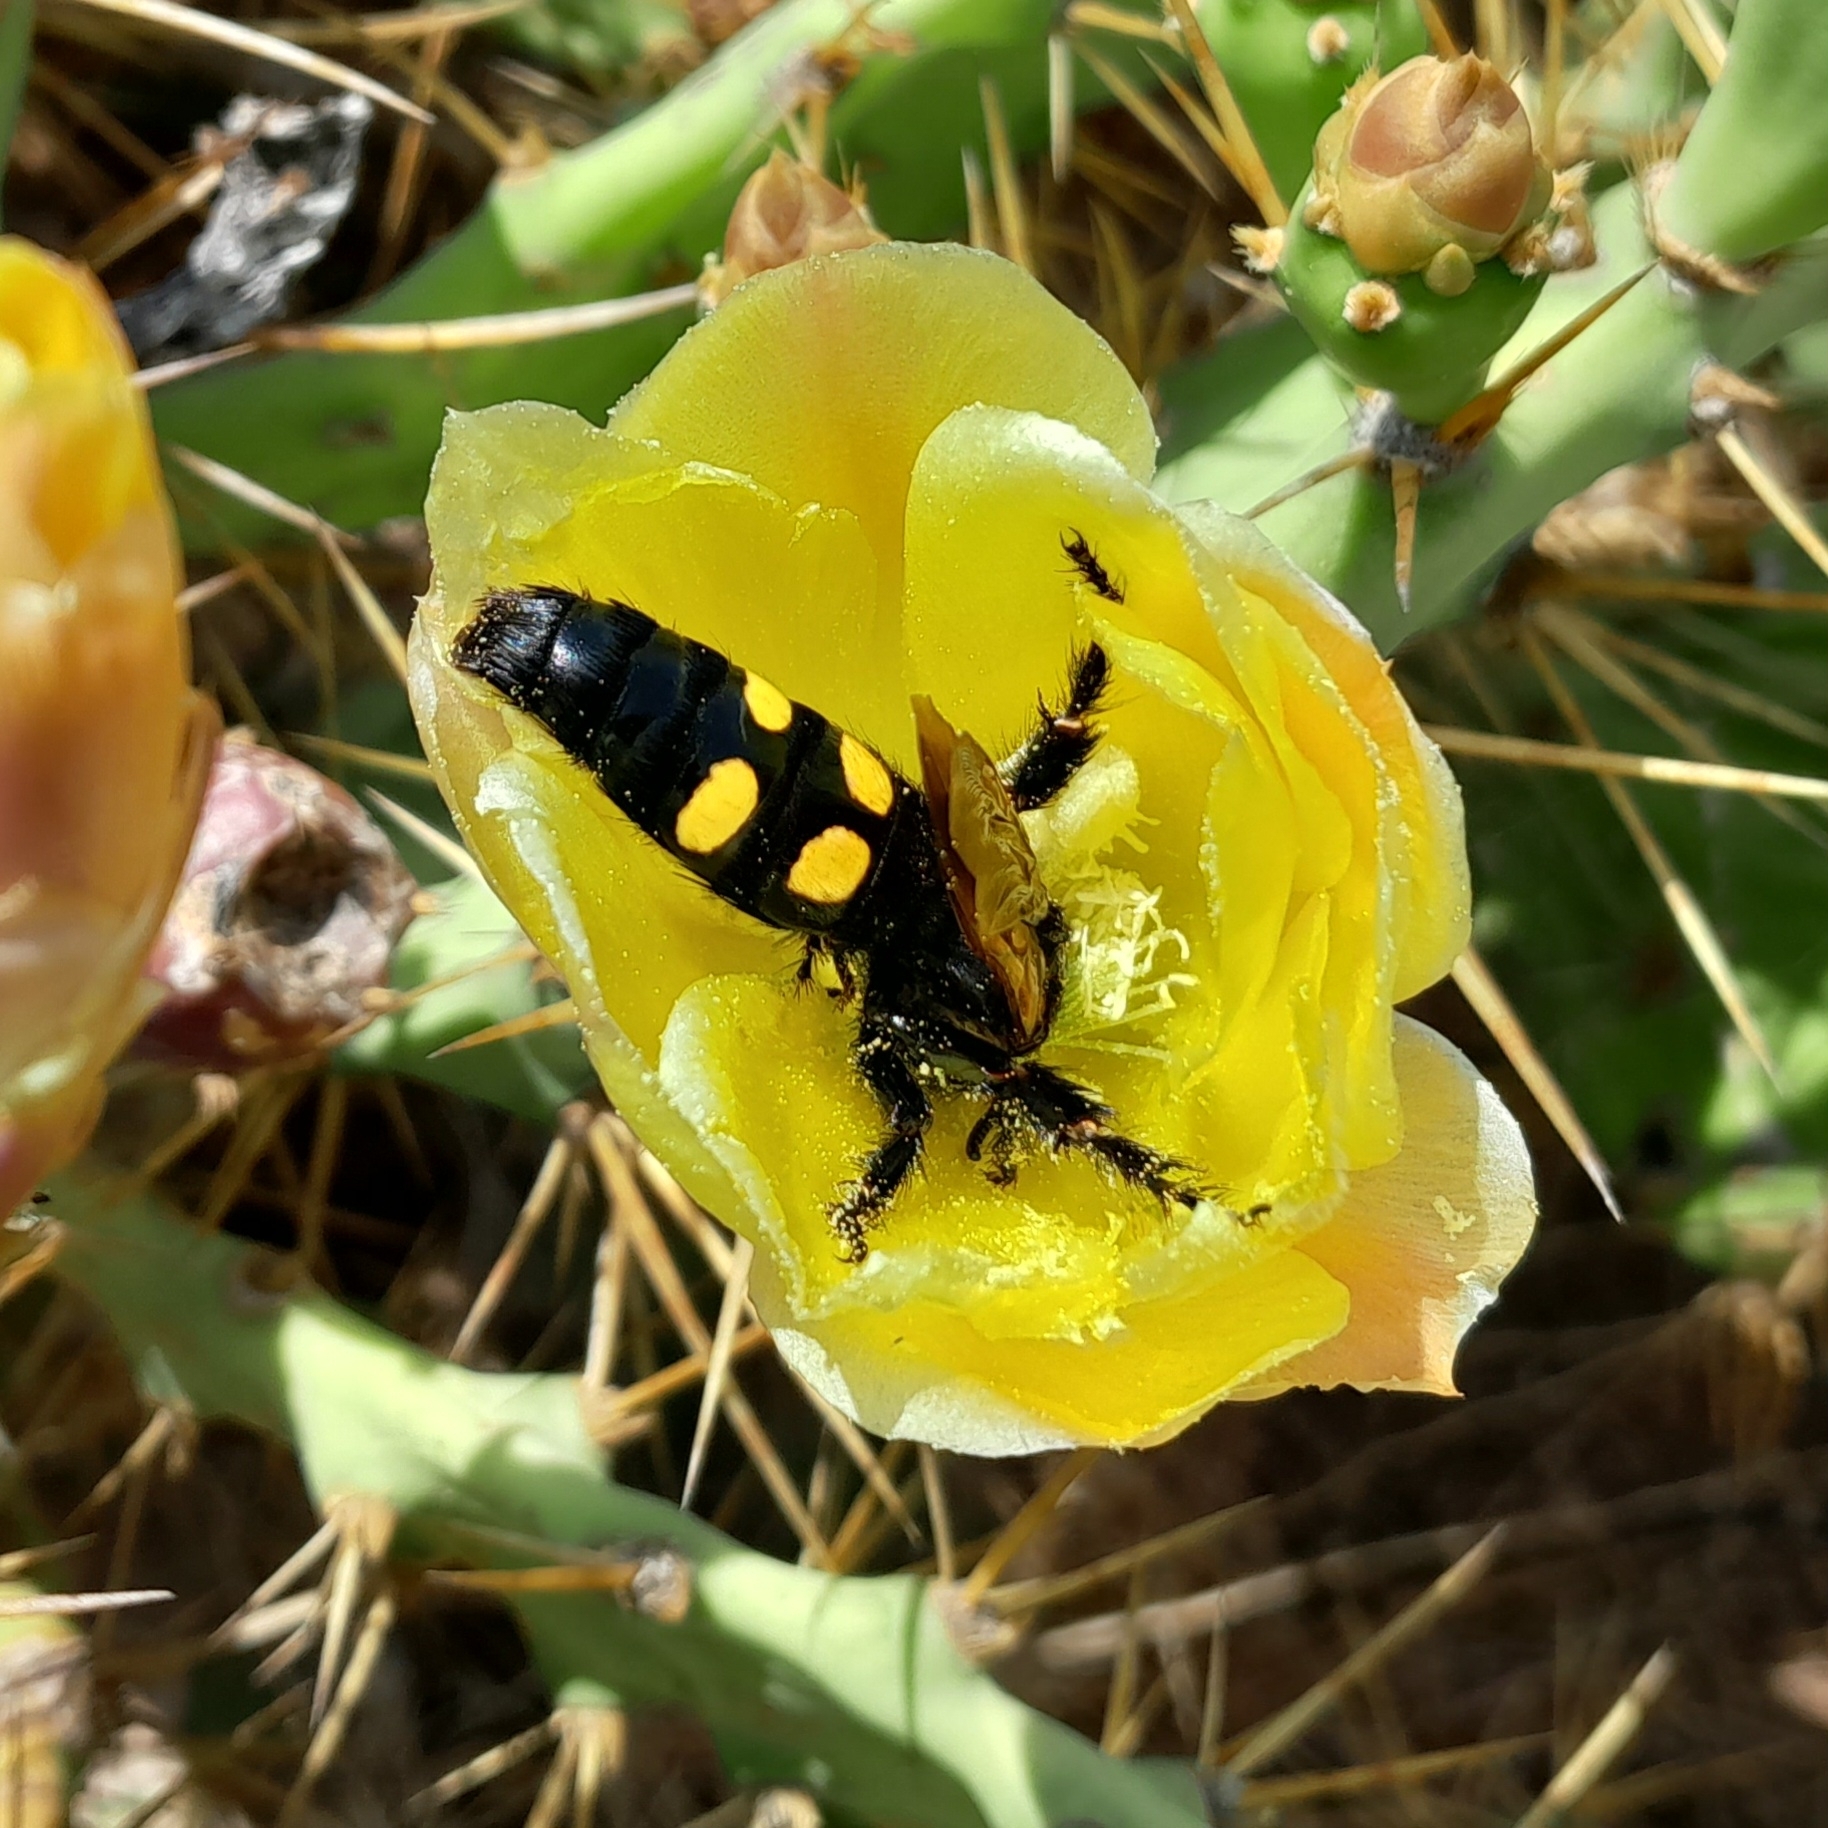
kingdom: Animalia
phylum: Arthropoda
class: Insecta
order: Hymenoptera
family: Scoliidae
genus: Megascolia
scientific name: Megascolia maculata
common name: Mammoth wasp
